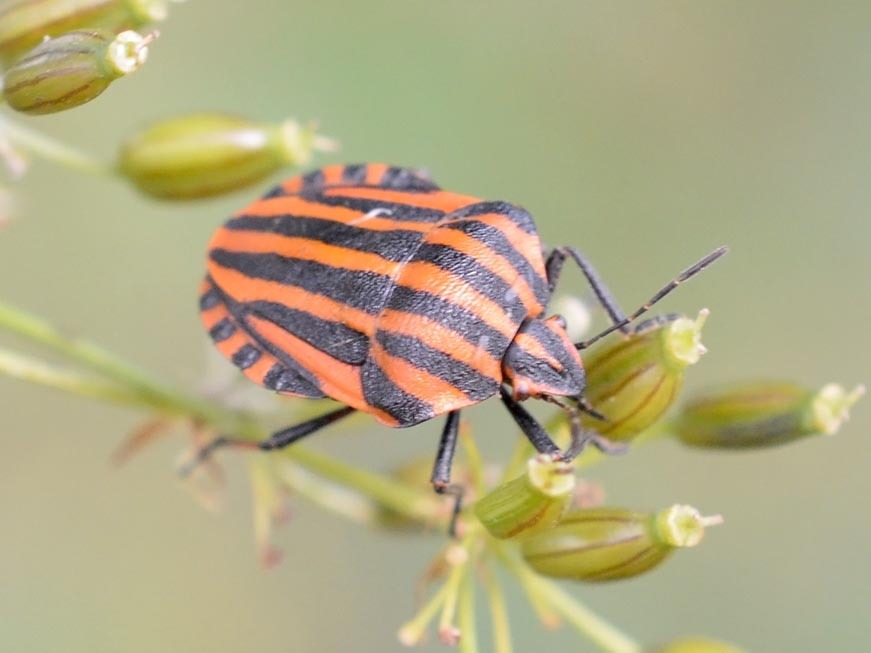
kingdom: Animalia
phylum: Arthropoda
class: Insecta
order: Hemiptera
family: Pentatomidae
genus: Graphosoma
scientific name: Graphosoma italicum
